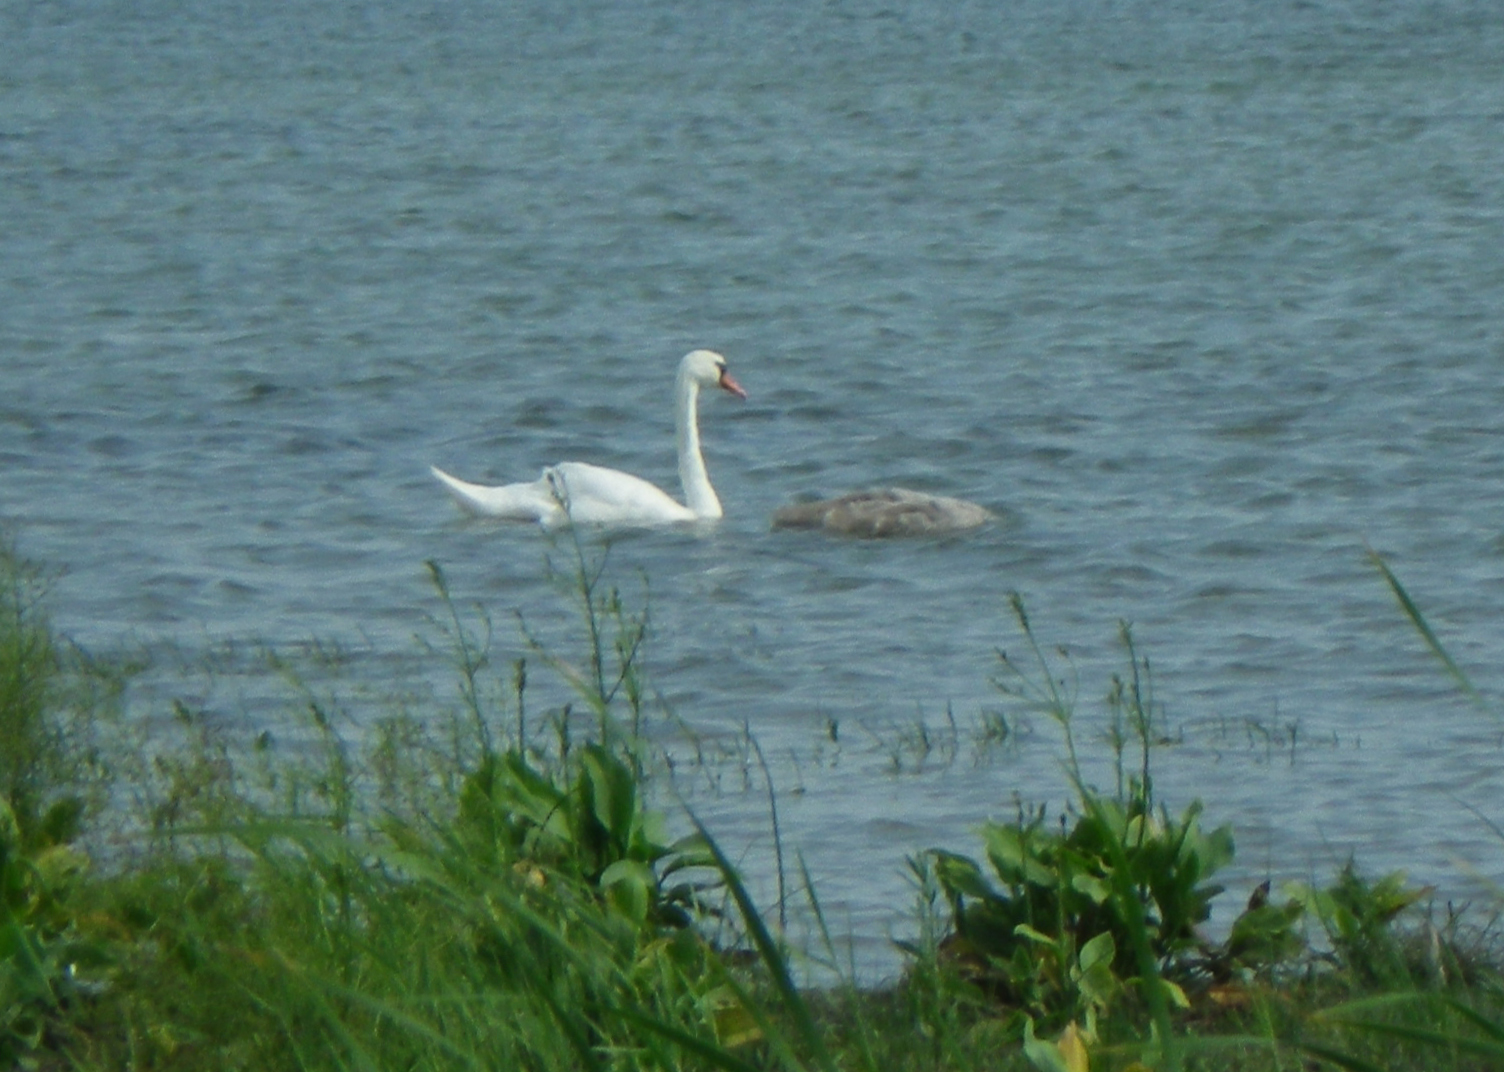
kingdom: Animalia
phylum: Chordata
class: Aves
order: Anseriformes
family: Anatidae
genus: Cygnus
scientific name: Cygnus olor
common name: Mute swan
